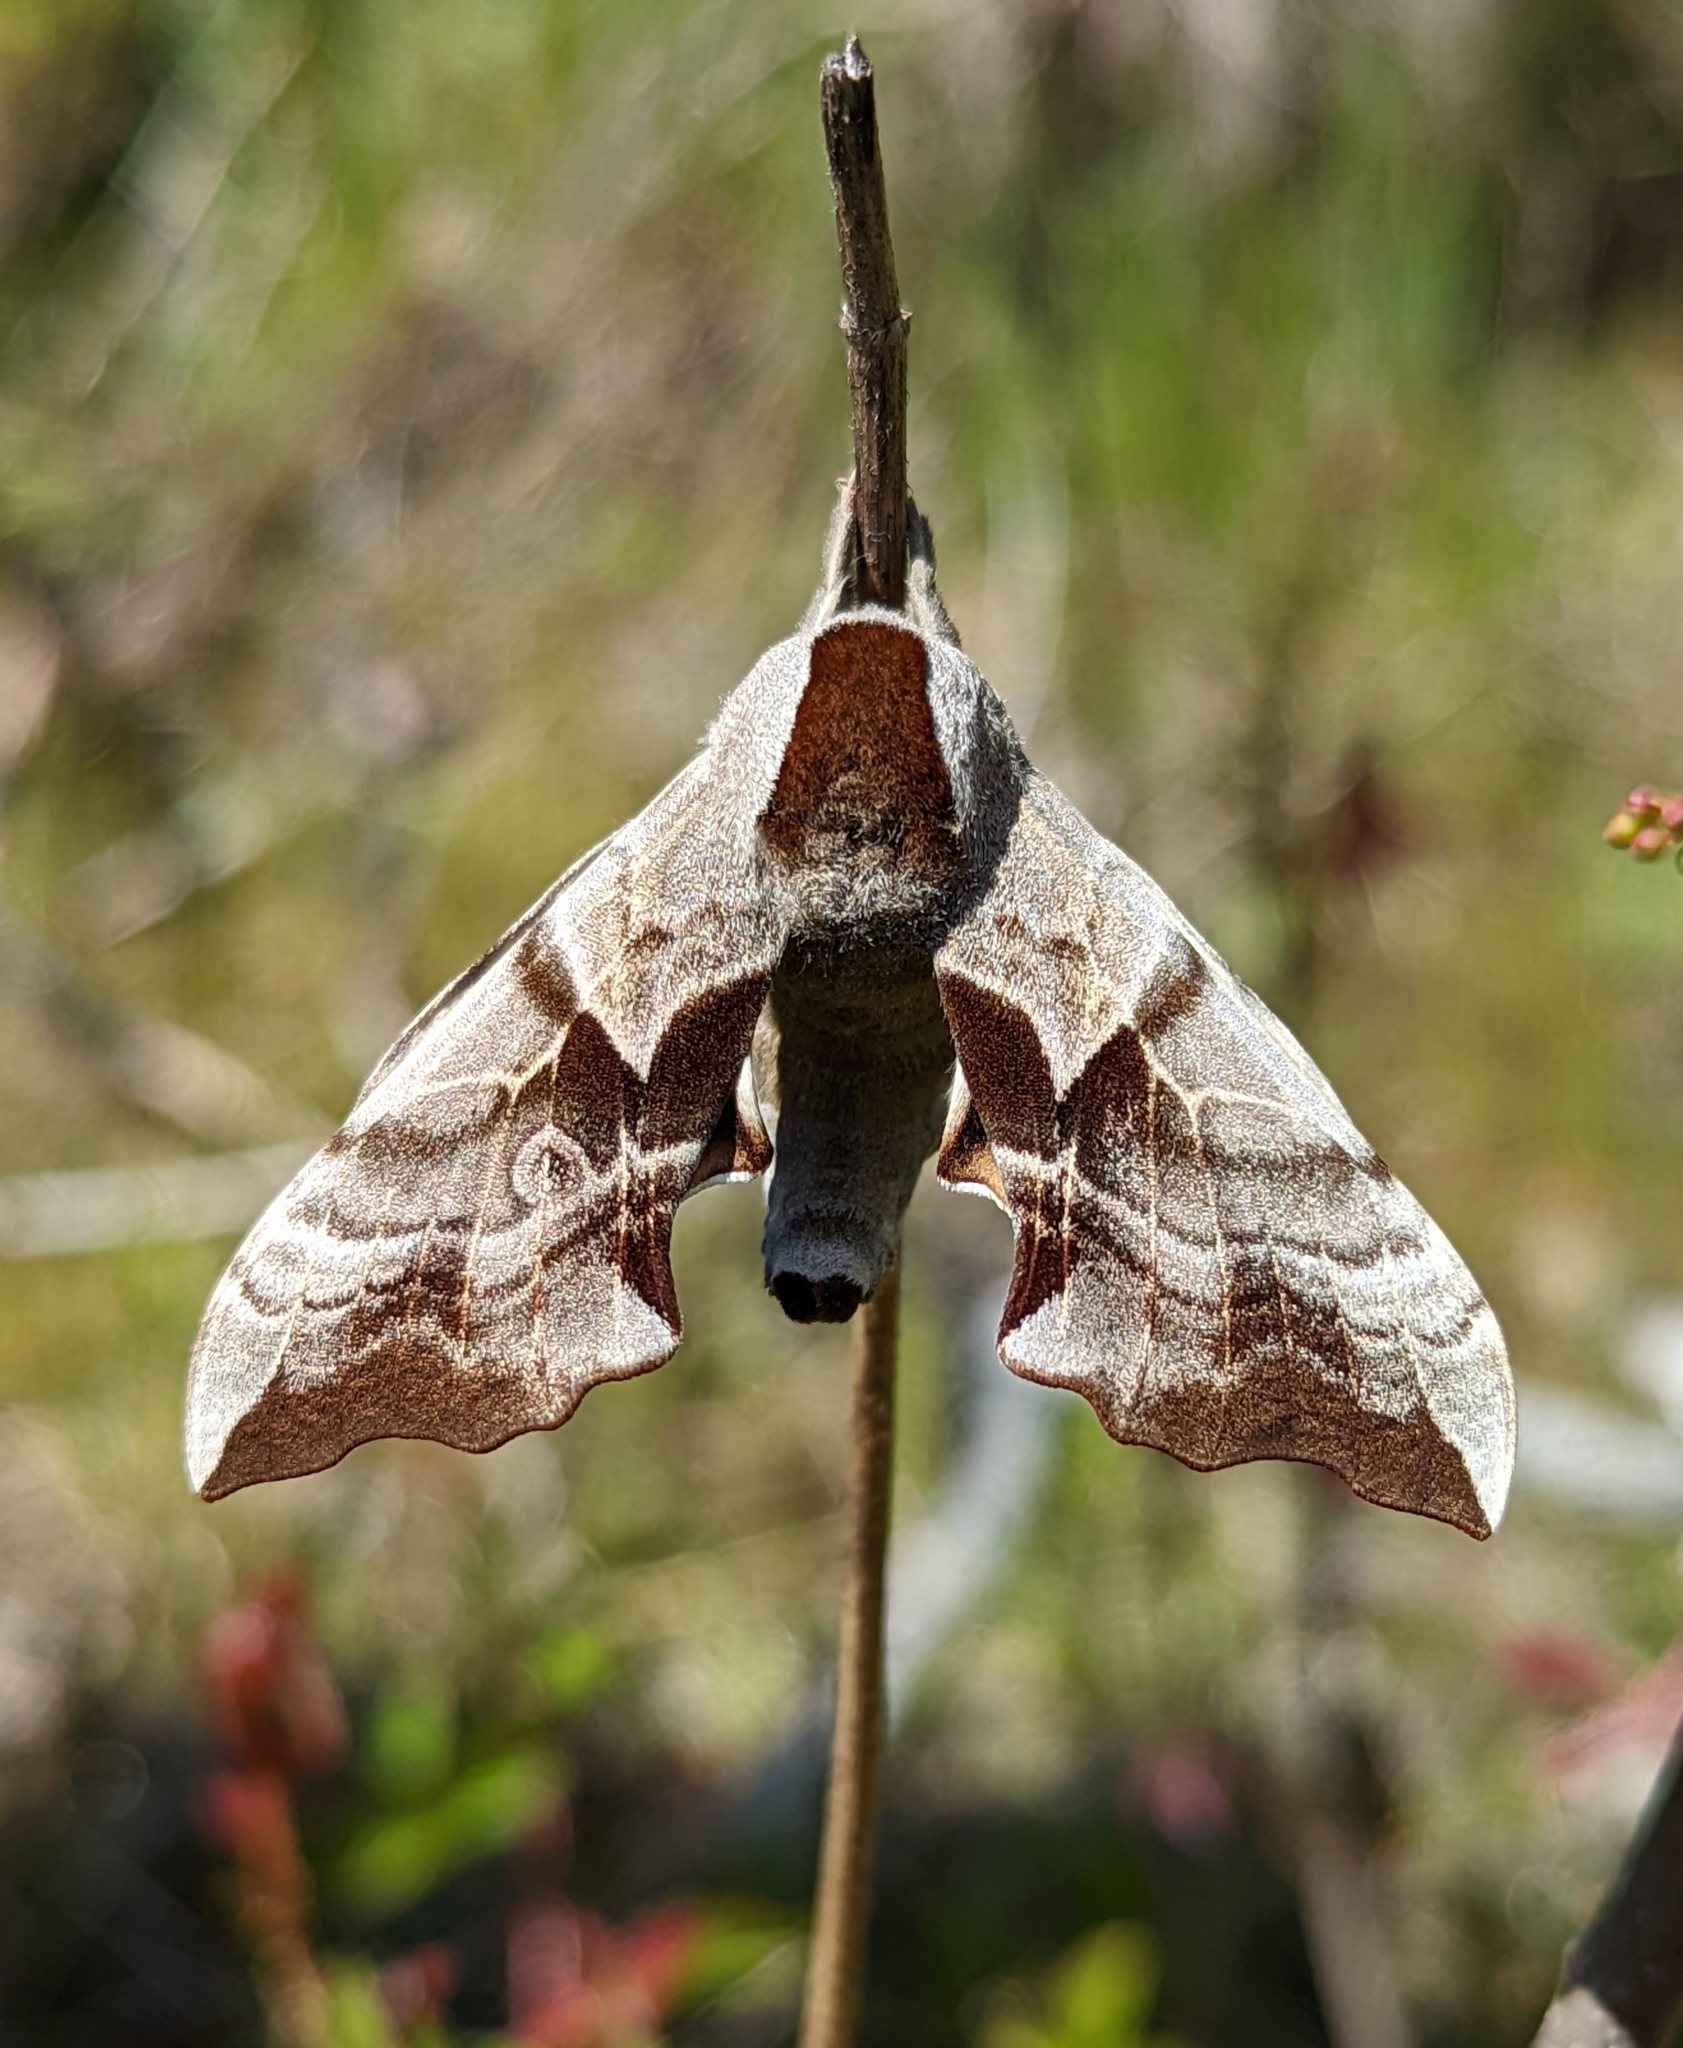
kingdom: Animalia
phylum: Arthropoda
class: Insecta
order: Lepidoptera
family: Sphingidae
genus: Smerinthus
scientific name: Smerinthus cerisyi
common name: Cerisy's sphinx moth
